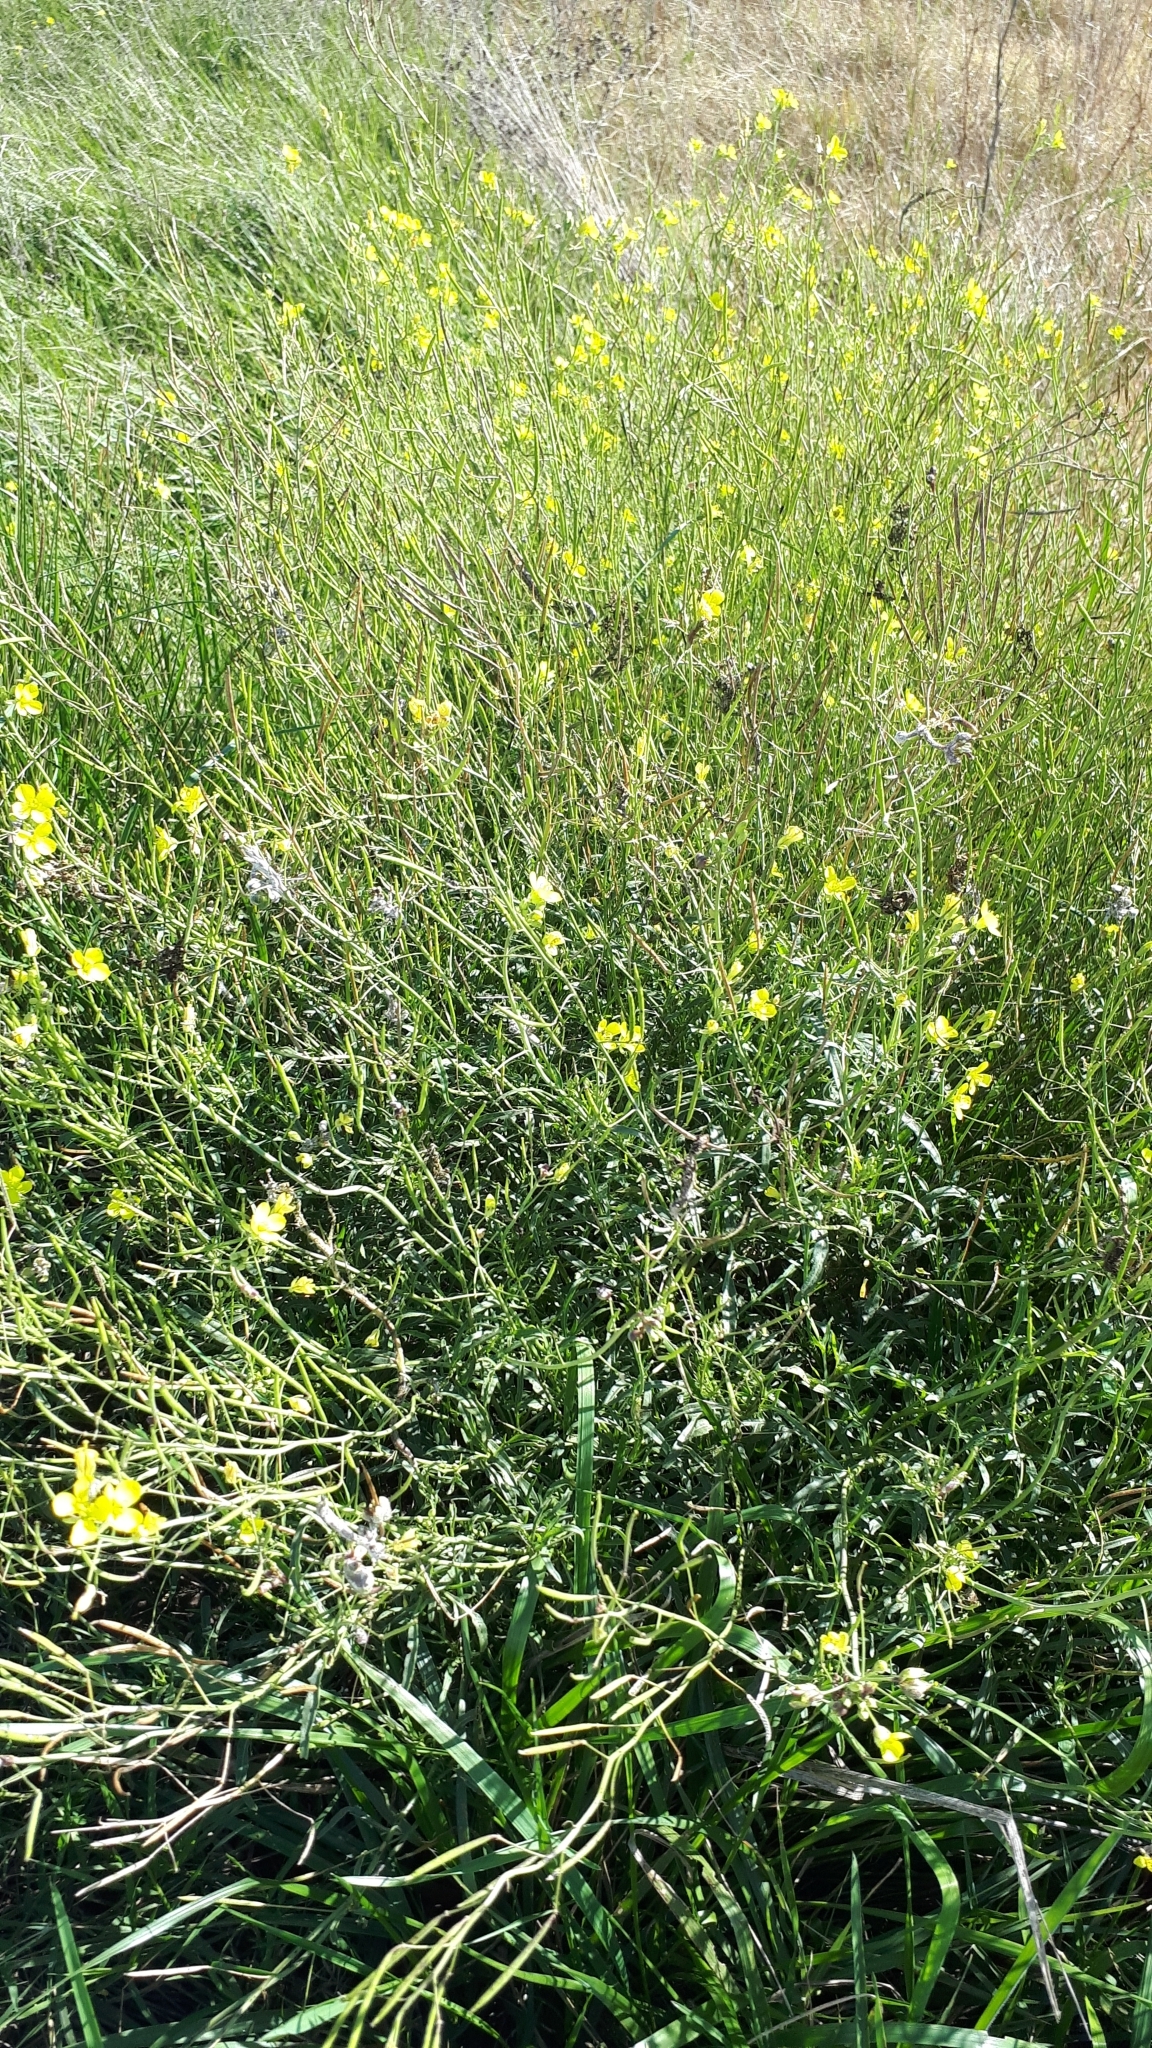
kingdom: Plantae
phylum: Tracheophyta
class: Magnoliopsida
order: Brassicales
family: Brassicaceae
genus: Diplotaxis
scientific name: Diplotaxis tenuifolia
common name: Perennial wall-rocket
